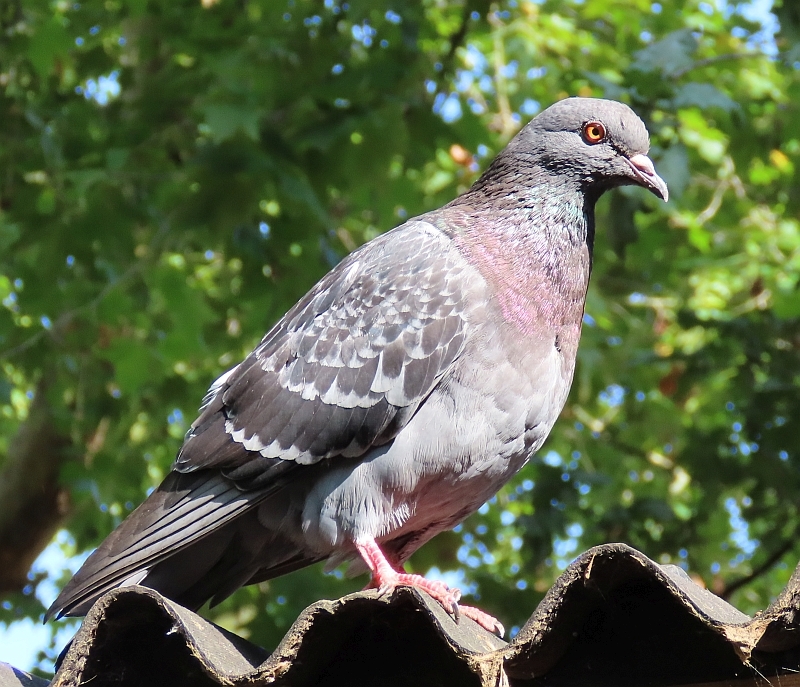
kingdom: Animalia
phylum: Chordata
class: Aves
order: Columbiformes
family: Columbidae
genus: Columba
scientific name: Columba livia
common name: Rock pigeon
